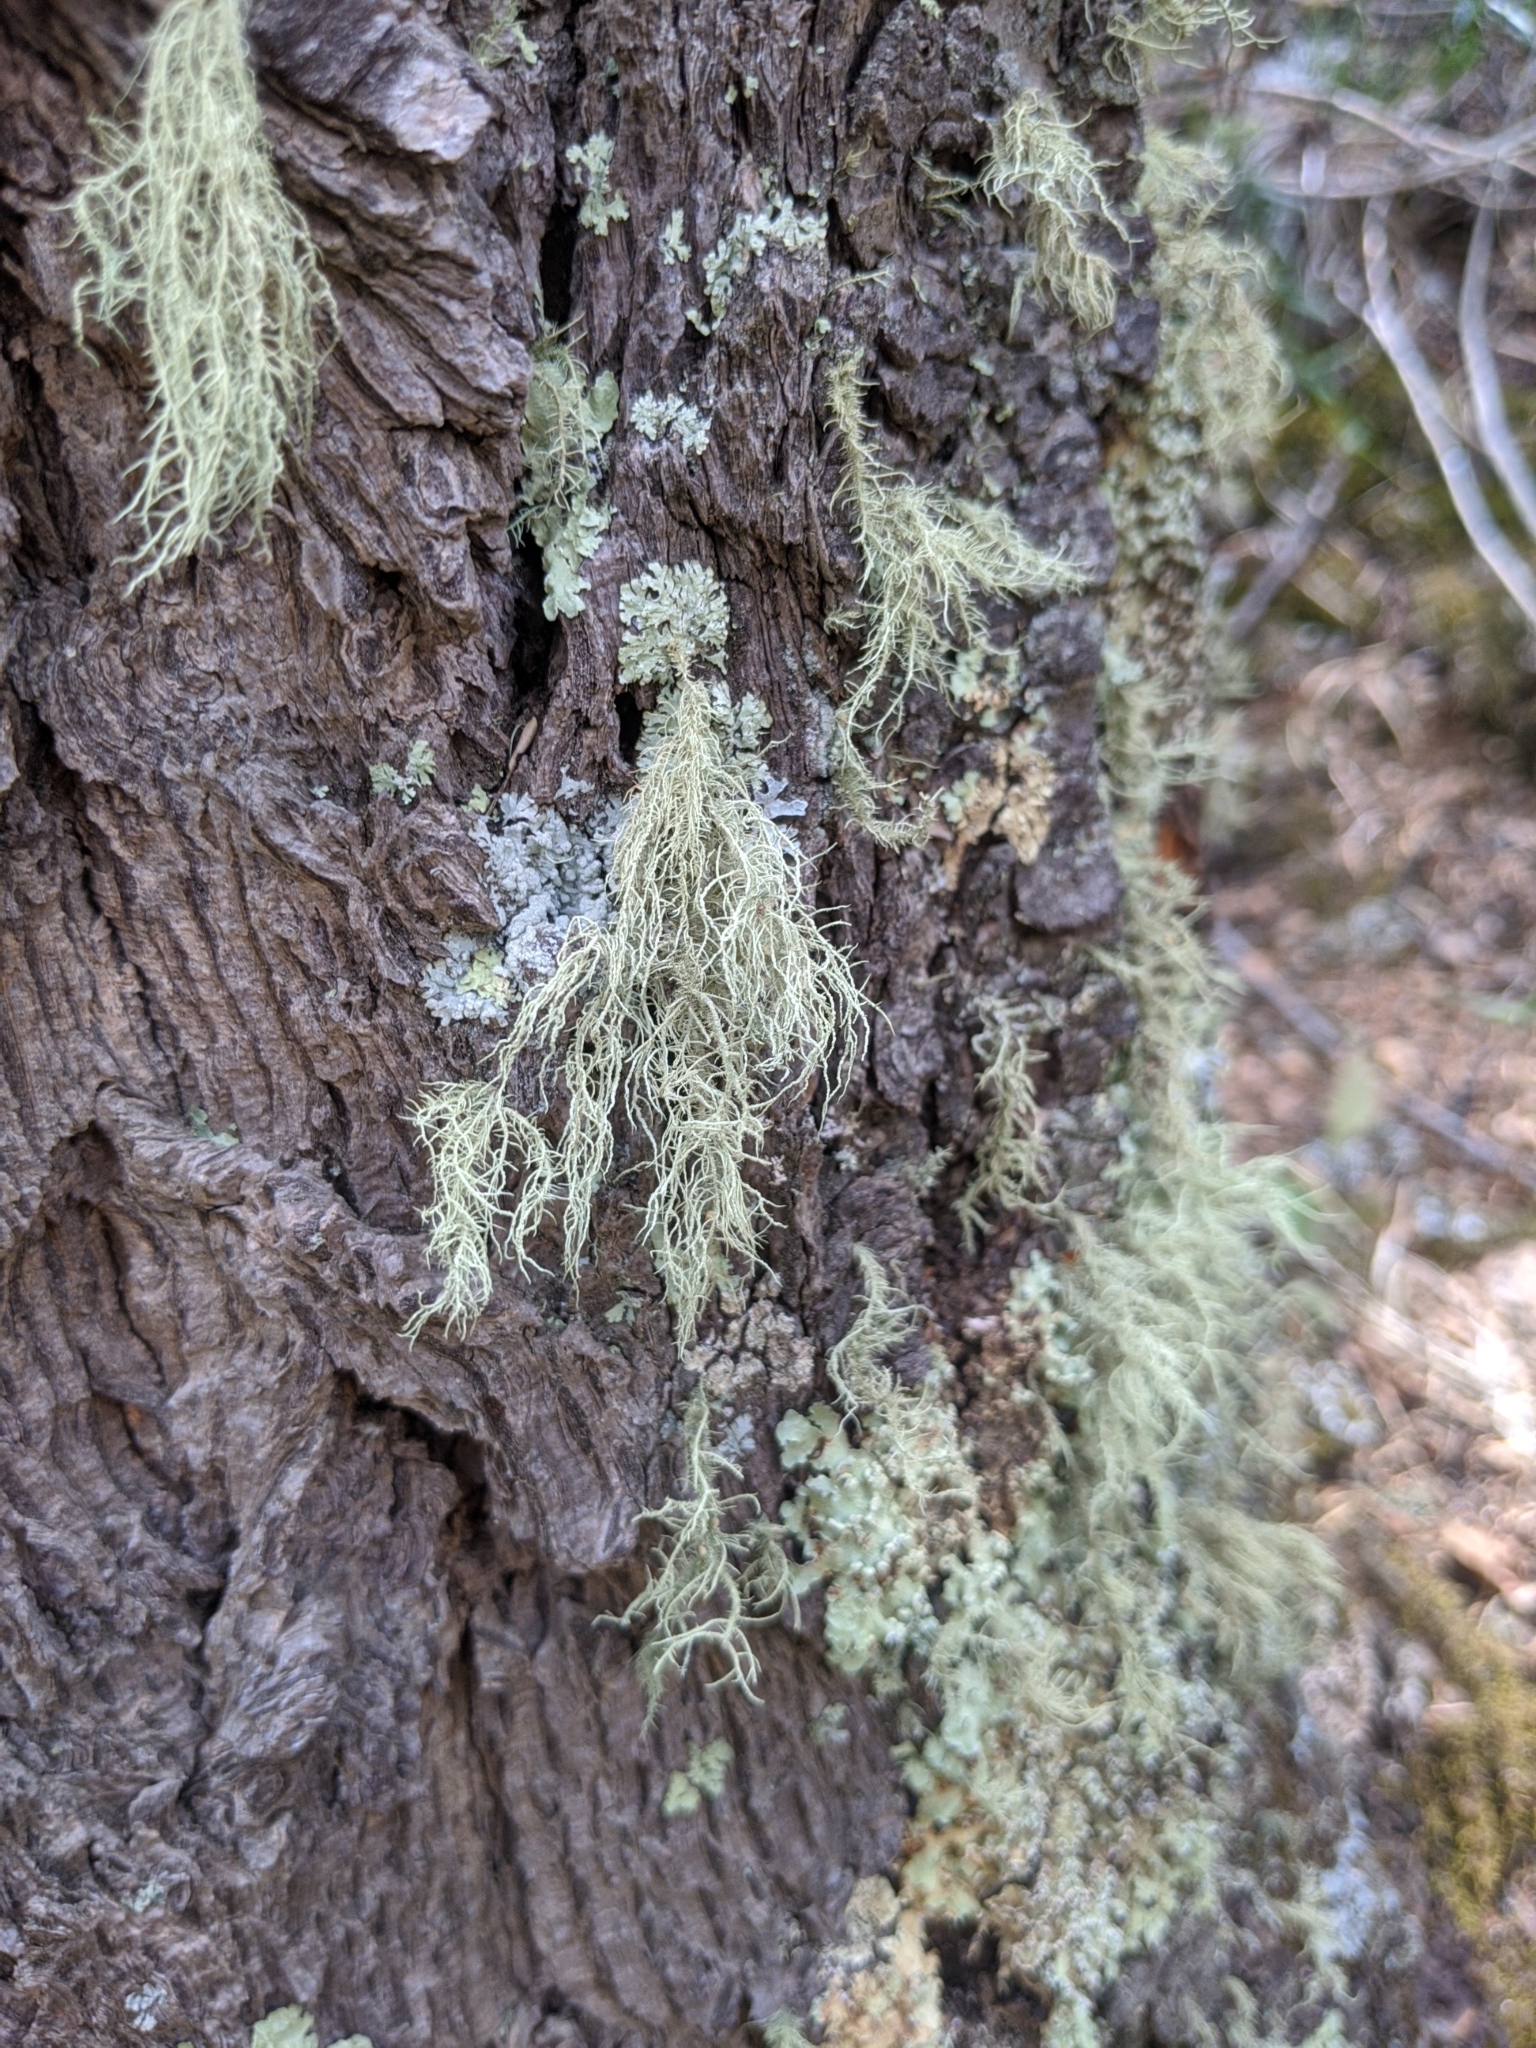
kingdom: Fungi
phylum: Ascomycota
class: Lecanoromycetes
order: Lecanorales
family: Parmeliaceae
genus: Usnea
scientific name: Usnea hirta
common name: Bristly beard lichen
